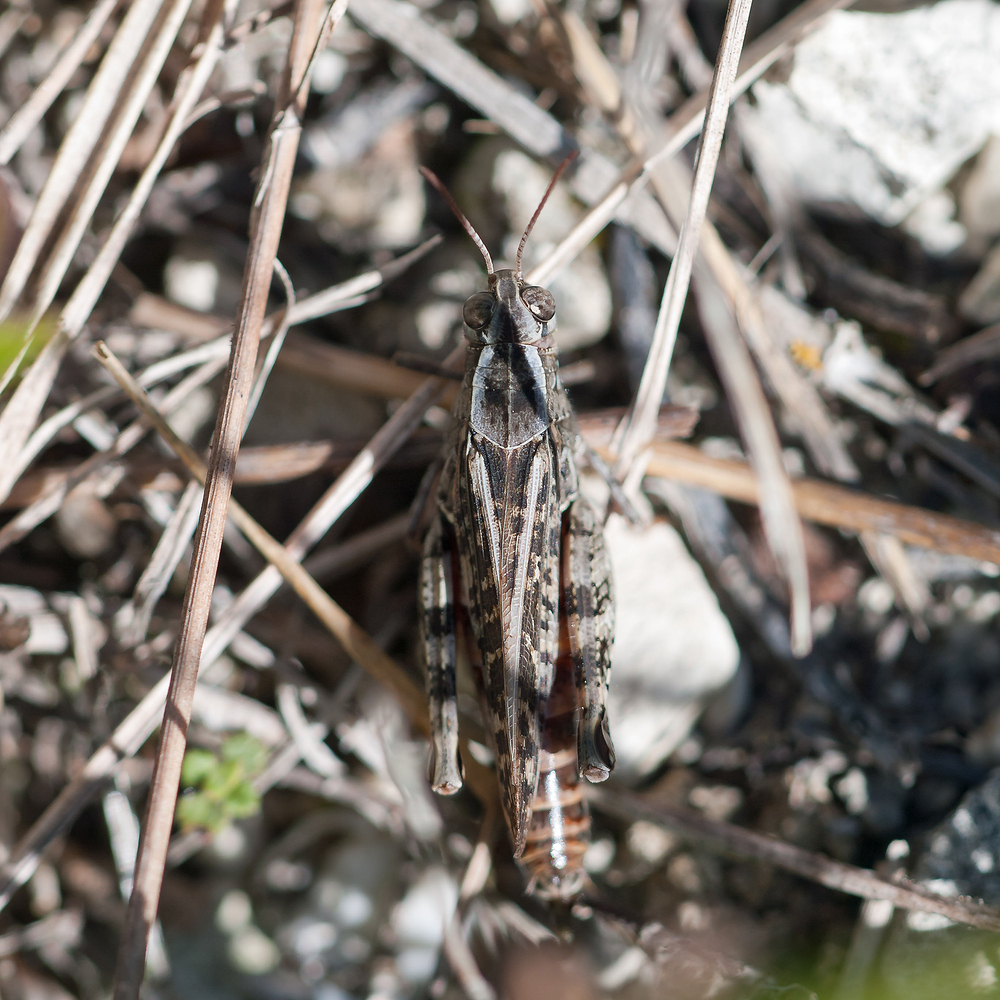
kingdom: Animalia
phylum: Arthropoda
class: Insecta
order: Orthoptera
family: Acrididae
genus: Calliptamus
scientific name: Calliptamus italicus
